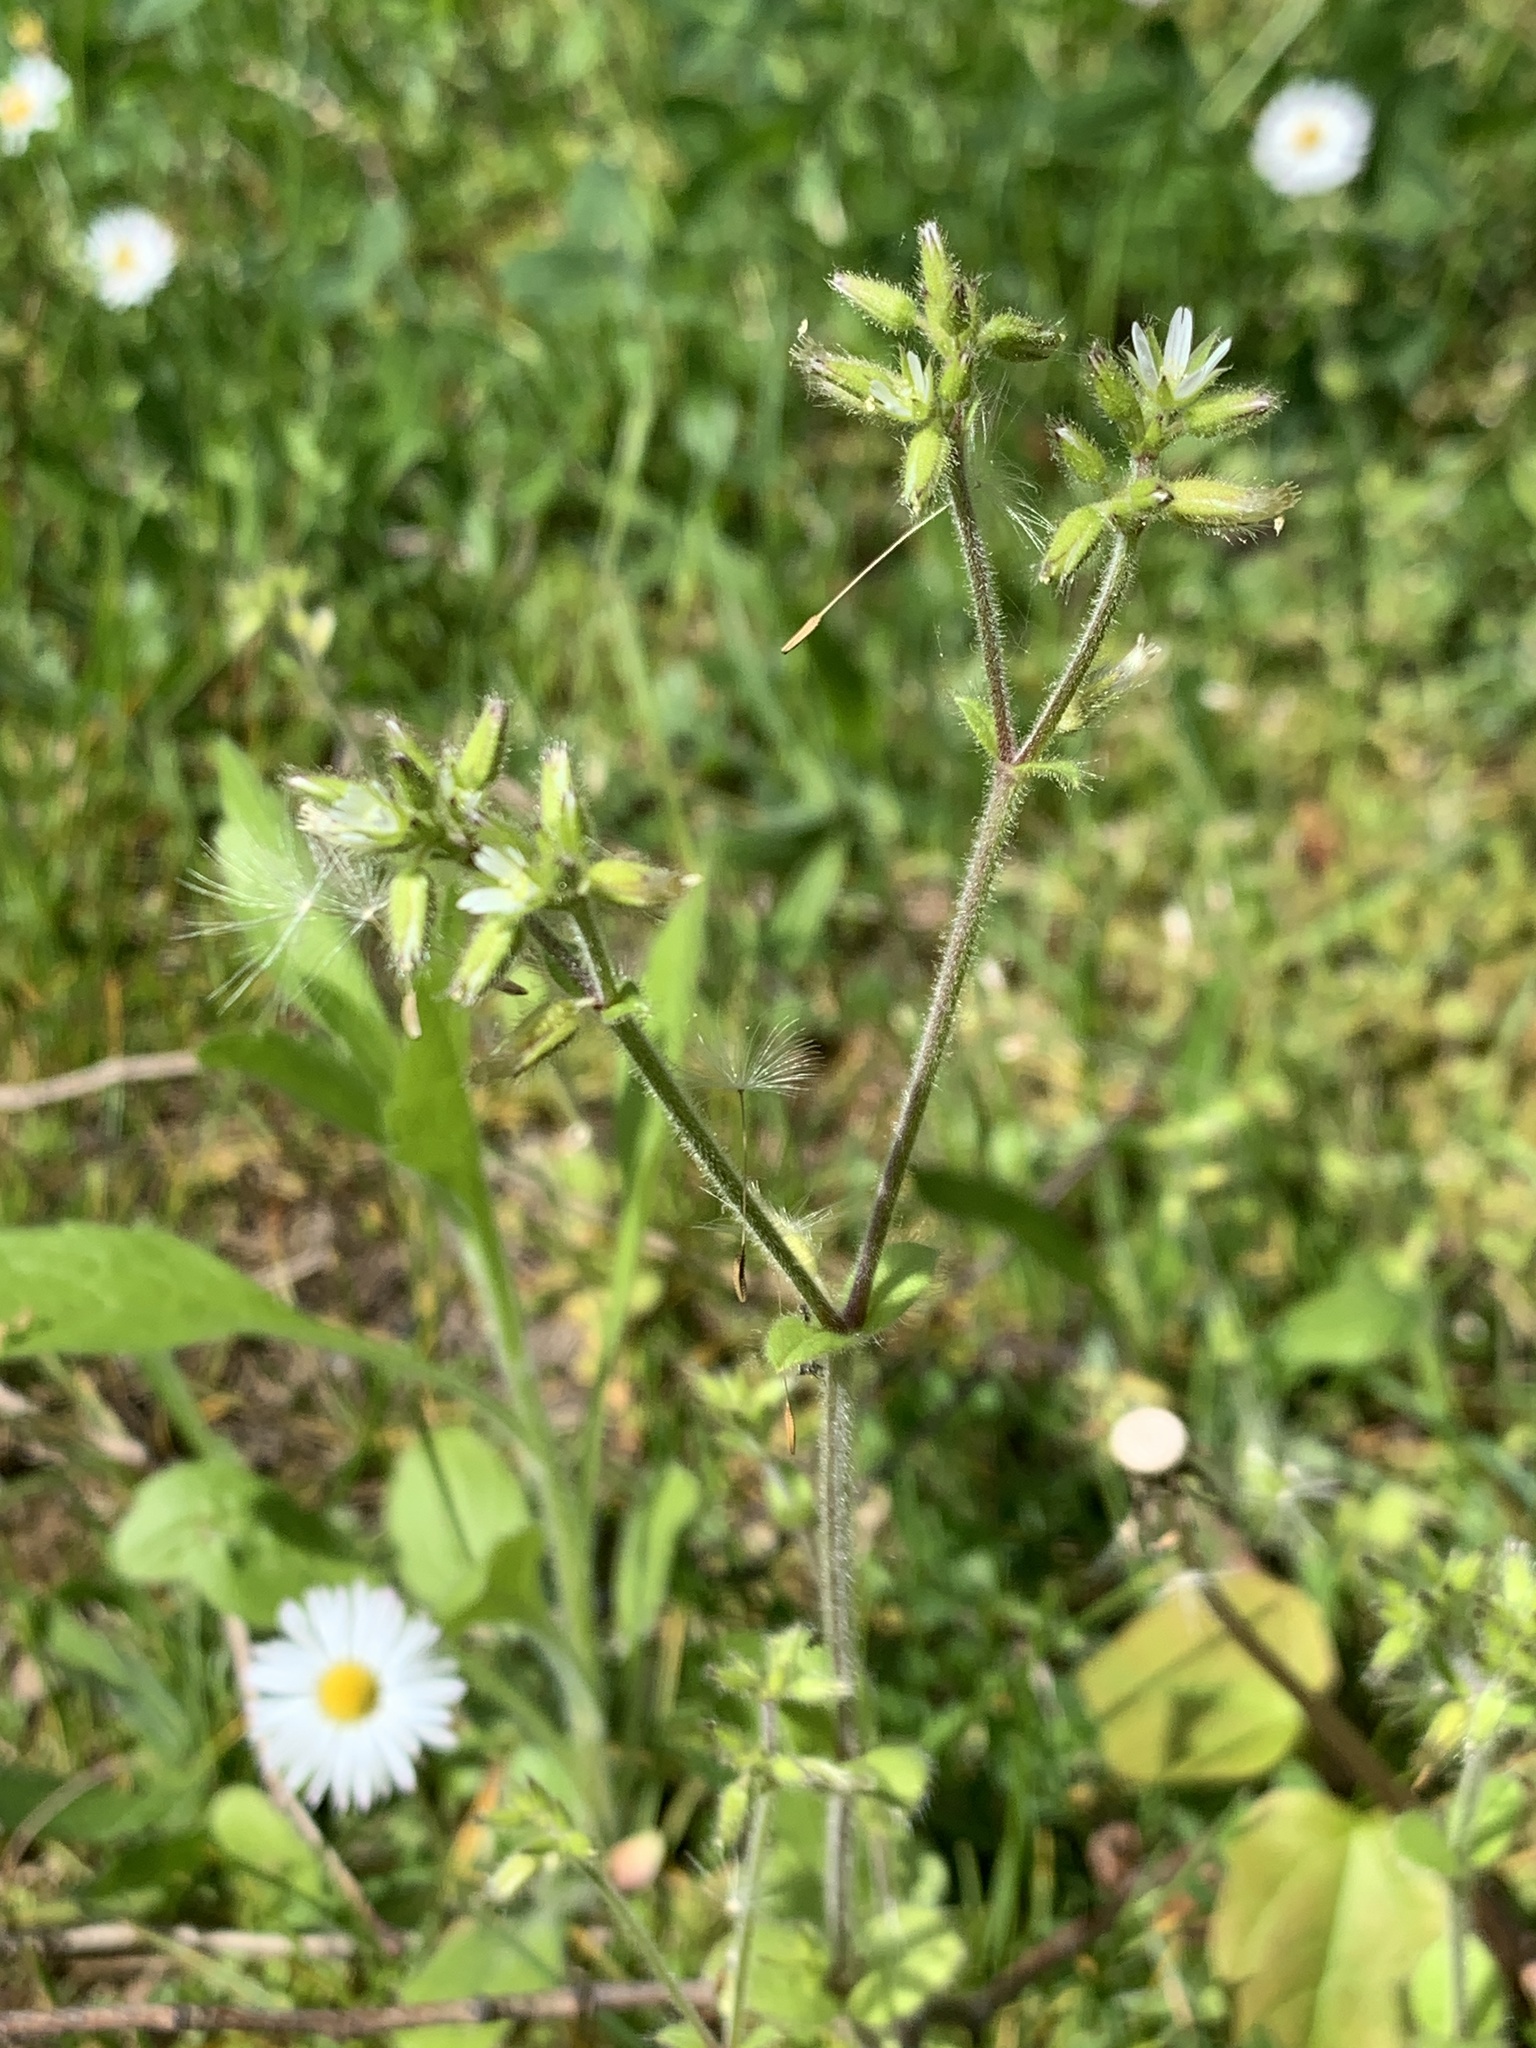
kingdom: Plantae
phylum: Tracheophyta
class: Magnoliopsida
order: Caryophyllales
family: Caryophyllaceae
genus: Cerastium
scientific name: Cerastium glomeratum
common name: Sticky chickweed
